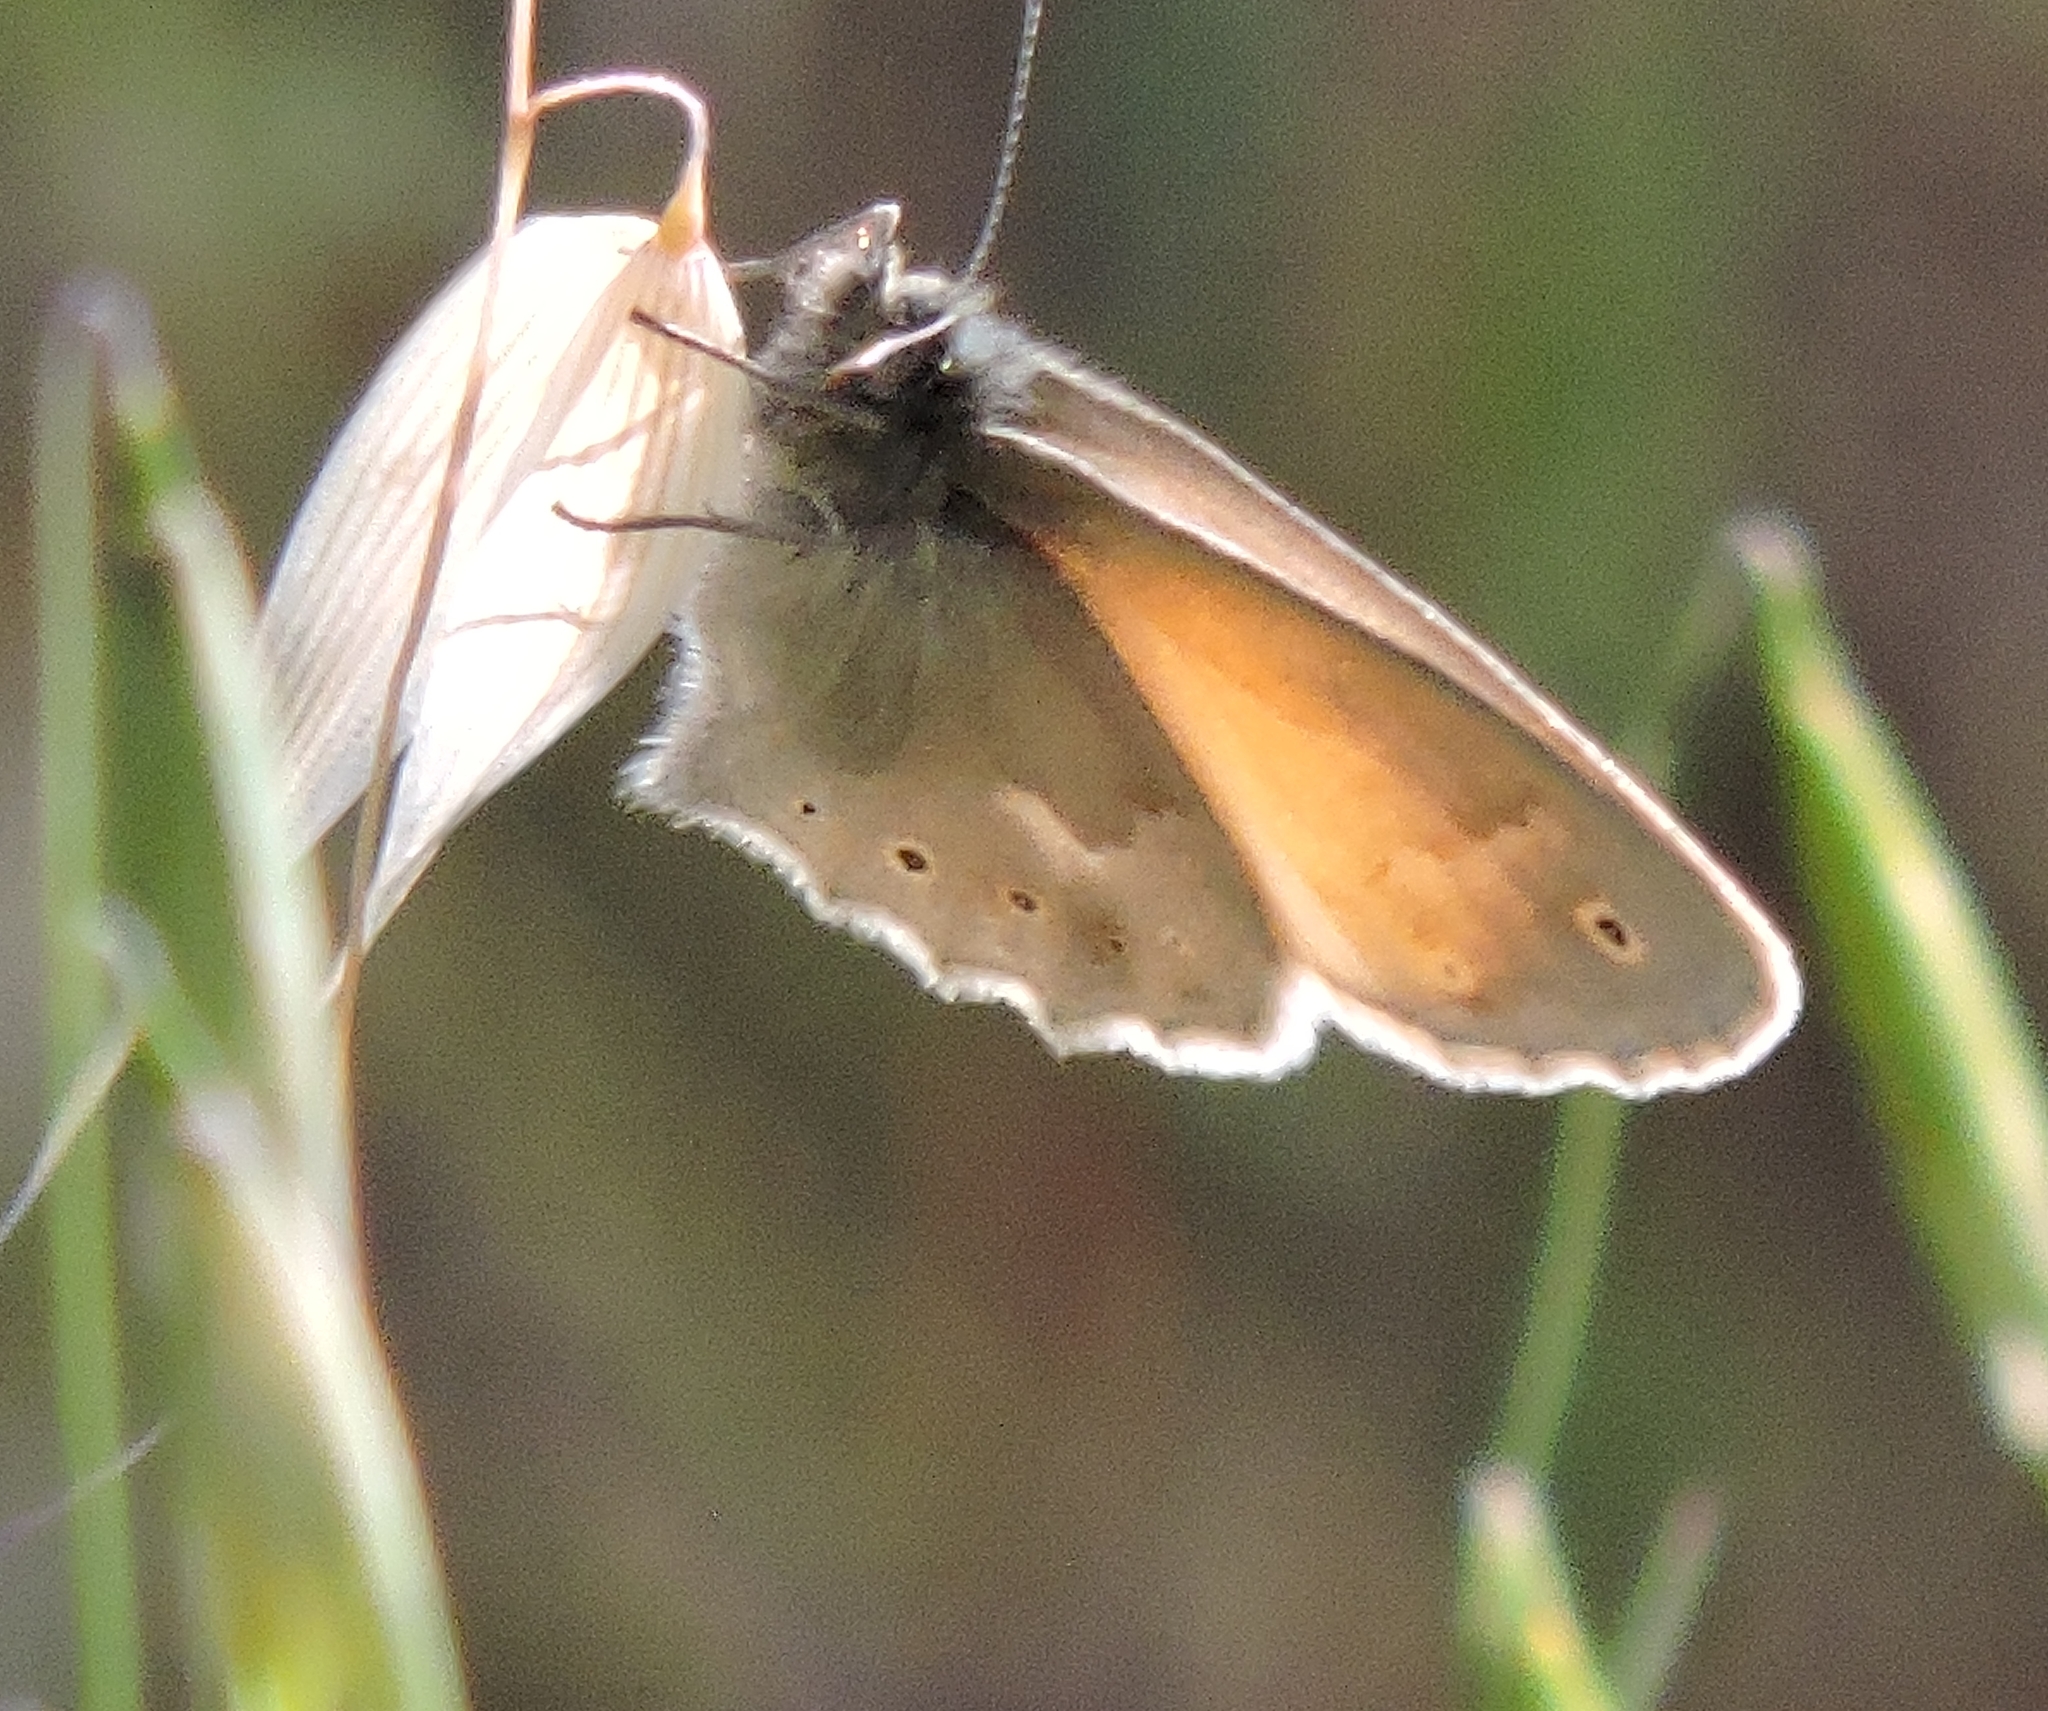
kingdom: Animalia
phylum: Arthropoda
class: Insecta
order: Lepidoptera
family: Nymphalidae
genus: Coenonympha
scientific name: Coenonympha california
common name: Common ringlet
